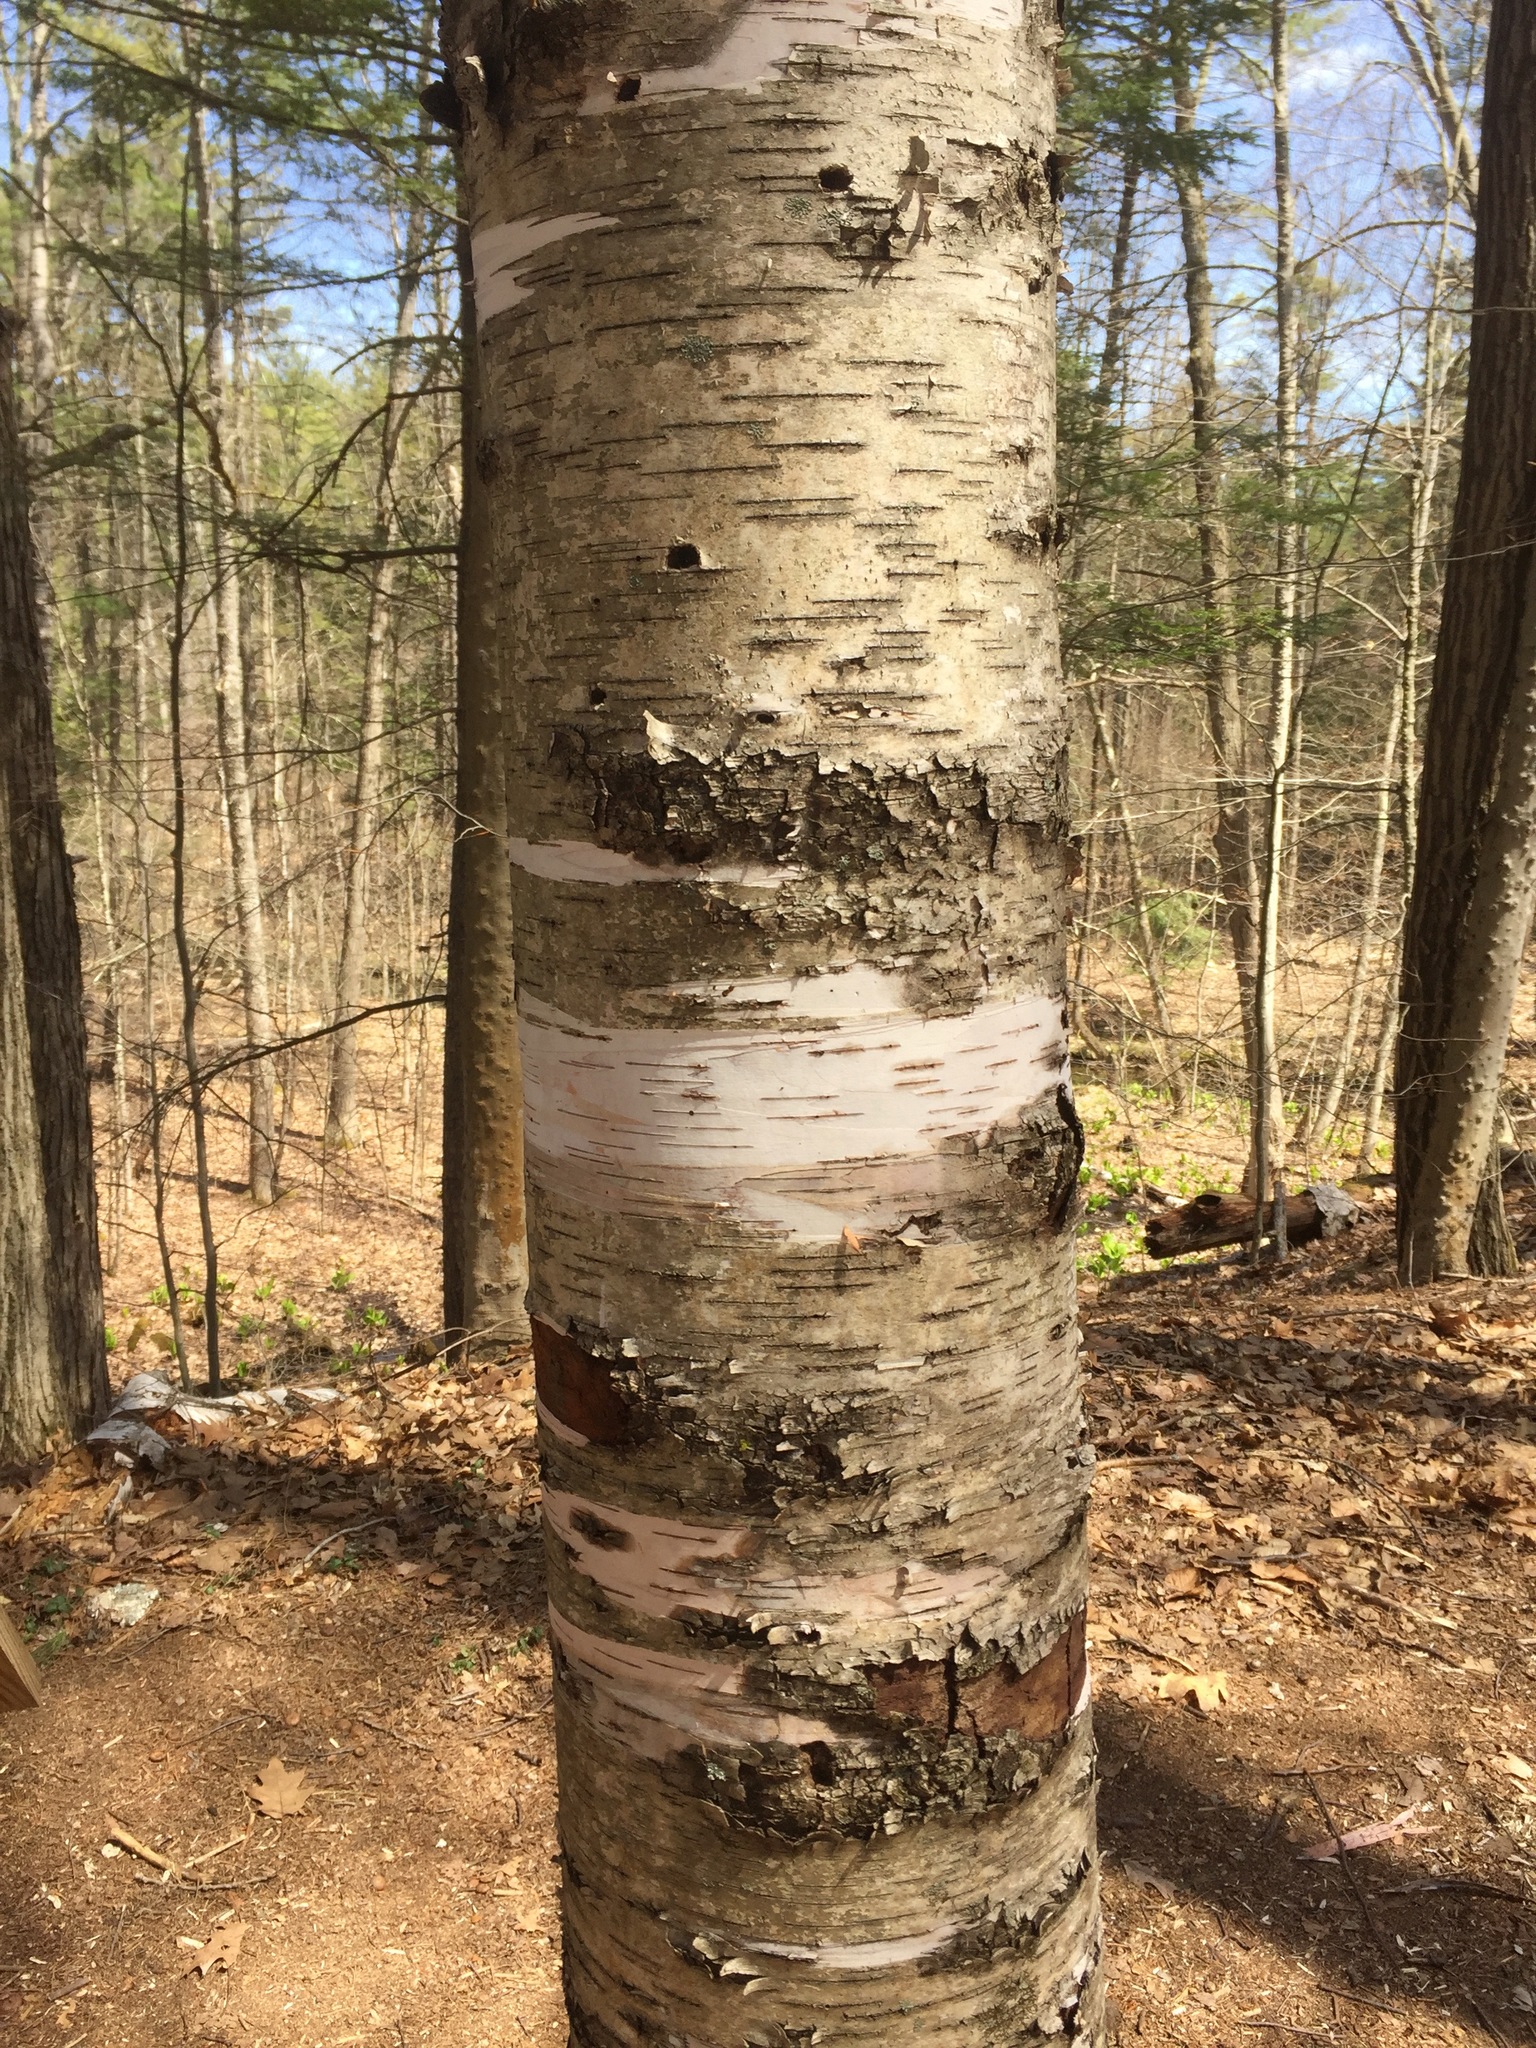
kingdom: Plantae
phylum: Tracheophyta
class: Magnoliopsida
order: Fagales
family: Betulaceae
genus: Betula
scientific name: Betula papyrifera
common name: Paper birch
